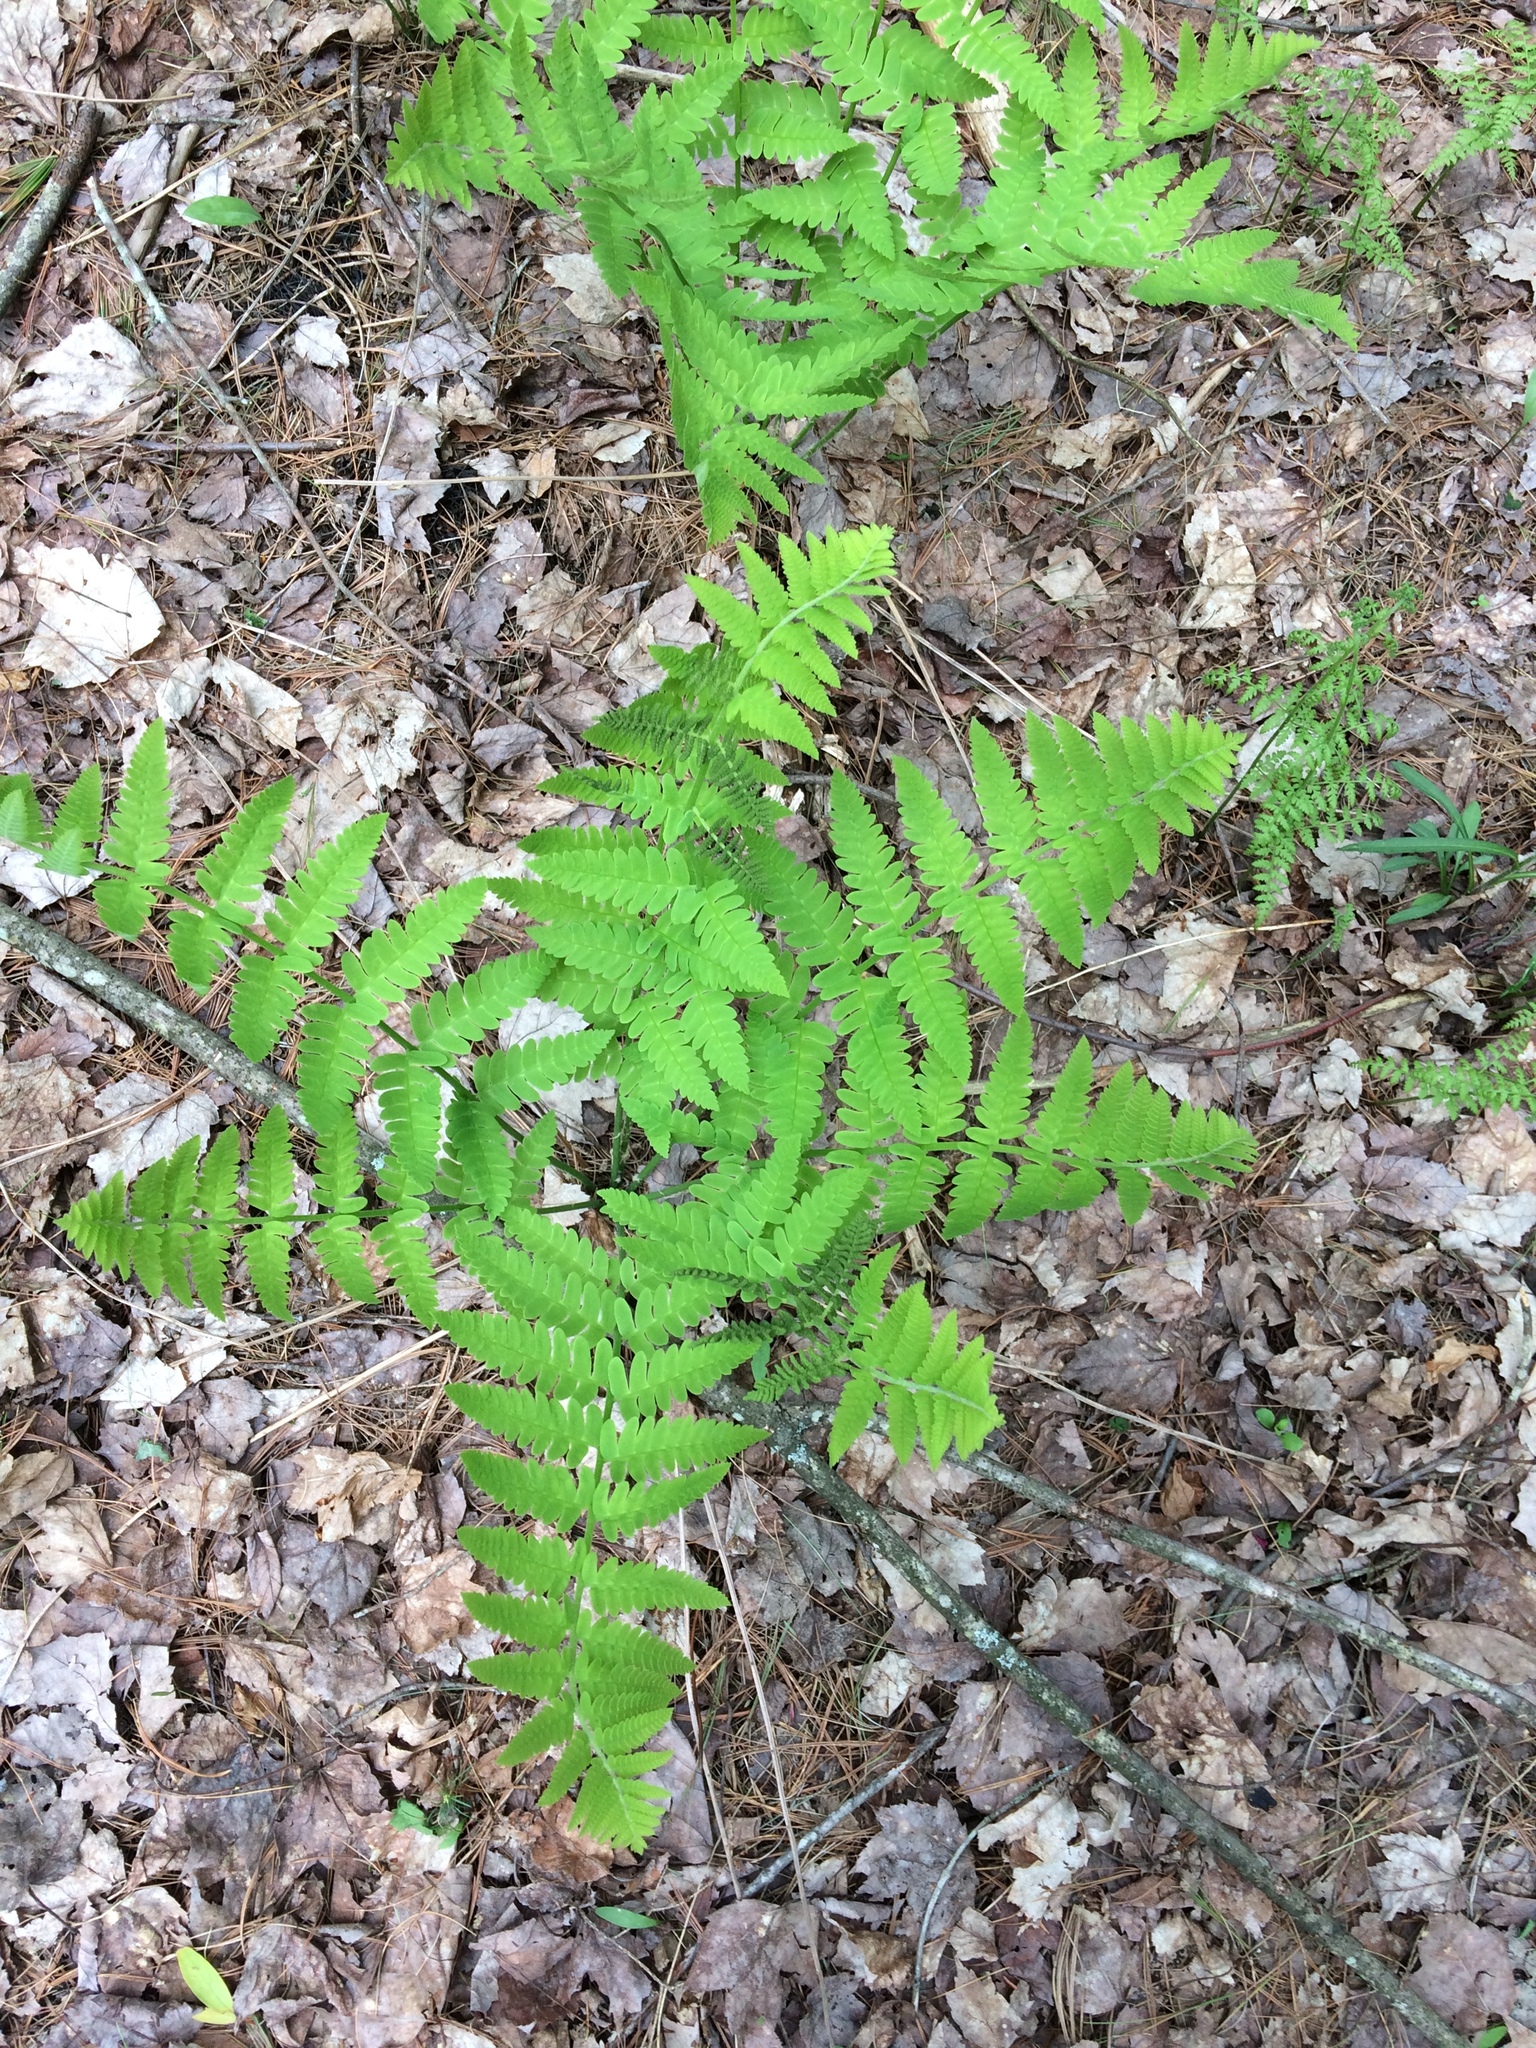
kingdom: Plantae
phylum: Tracheophyta
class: Polypodiopsida
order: Osmundales
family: Osmundaceae
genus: Claytosmunda
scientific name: Claytosmunda claytoniana
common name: Clayton's fern
